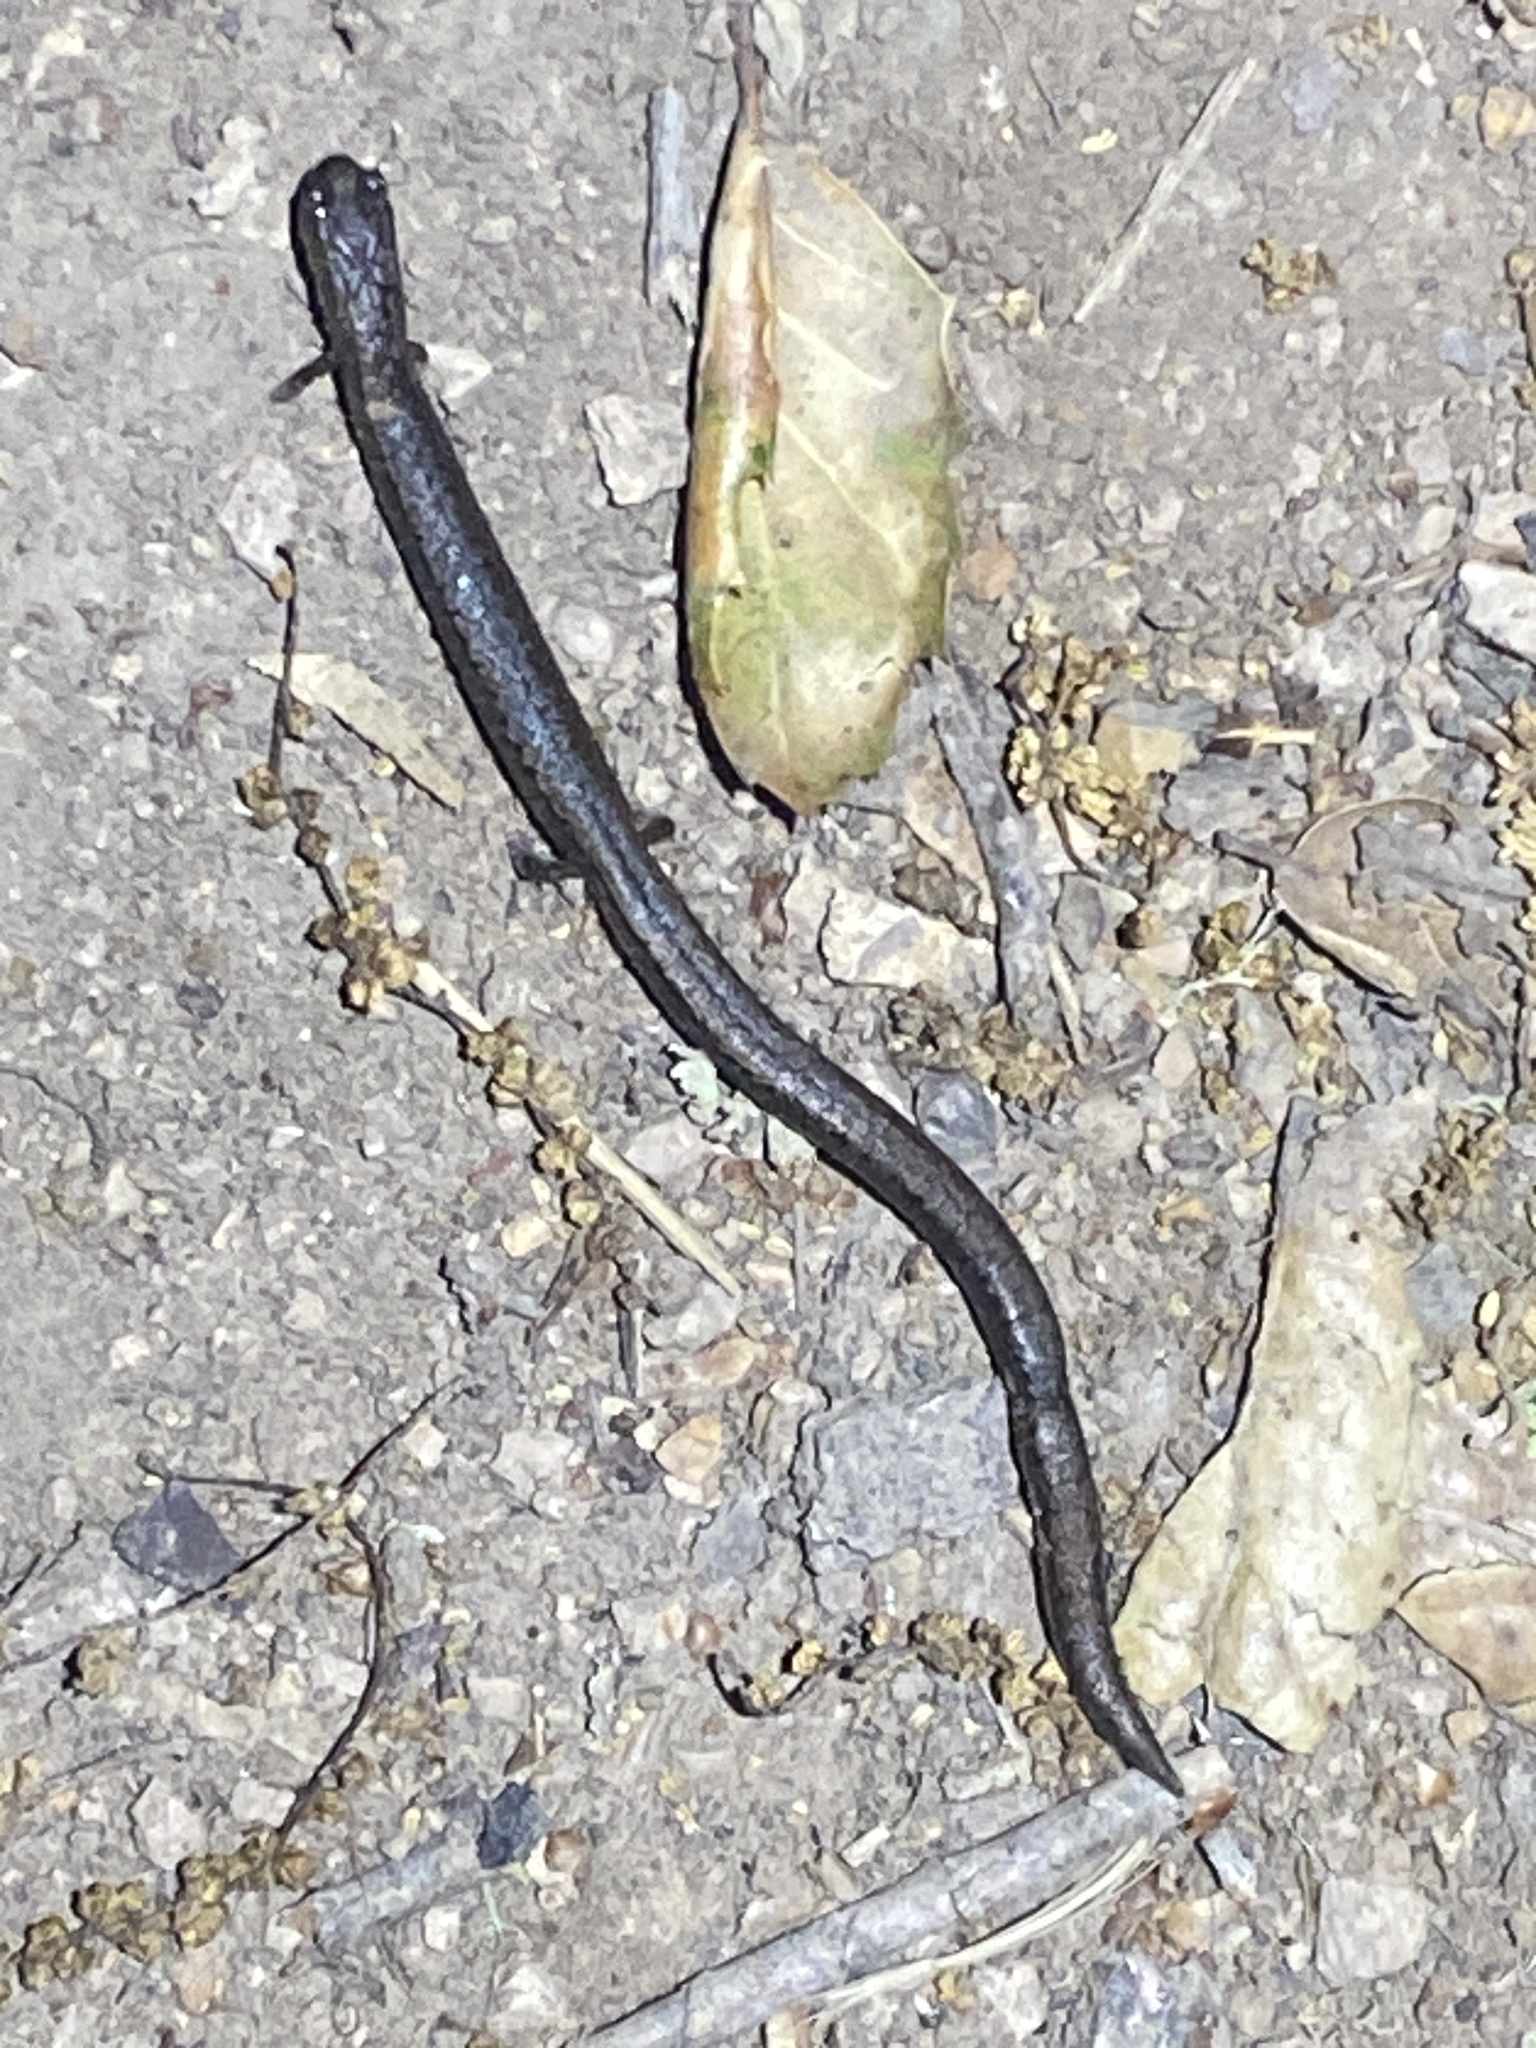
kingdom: Animalia
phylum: Chordata
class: Amphibia
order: Caudata
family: Plethodontidae
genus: Batrachoseps
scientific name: Batrachoseps attenuatus
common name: California slender salamander
